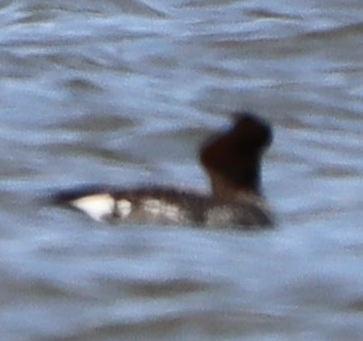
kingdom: Animalia
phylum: Chordata
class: Aves
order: Anseriformes
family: Anatidae
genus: Bucephala
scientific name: Bucephala clangula
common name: Common goldeneye
